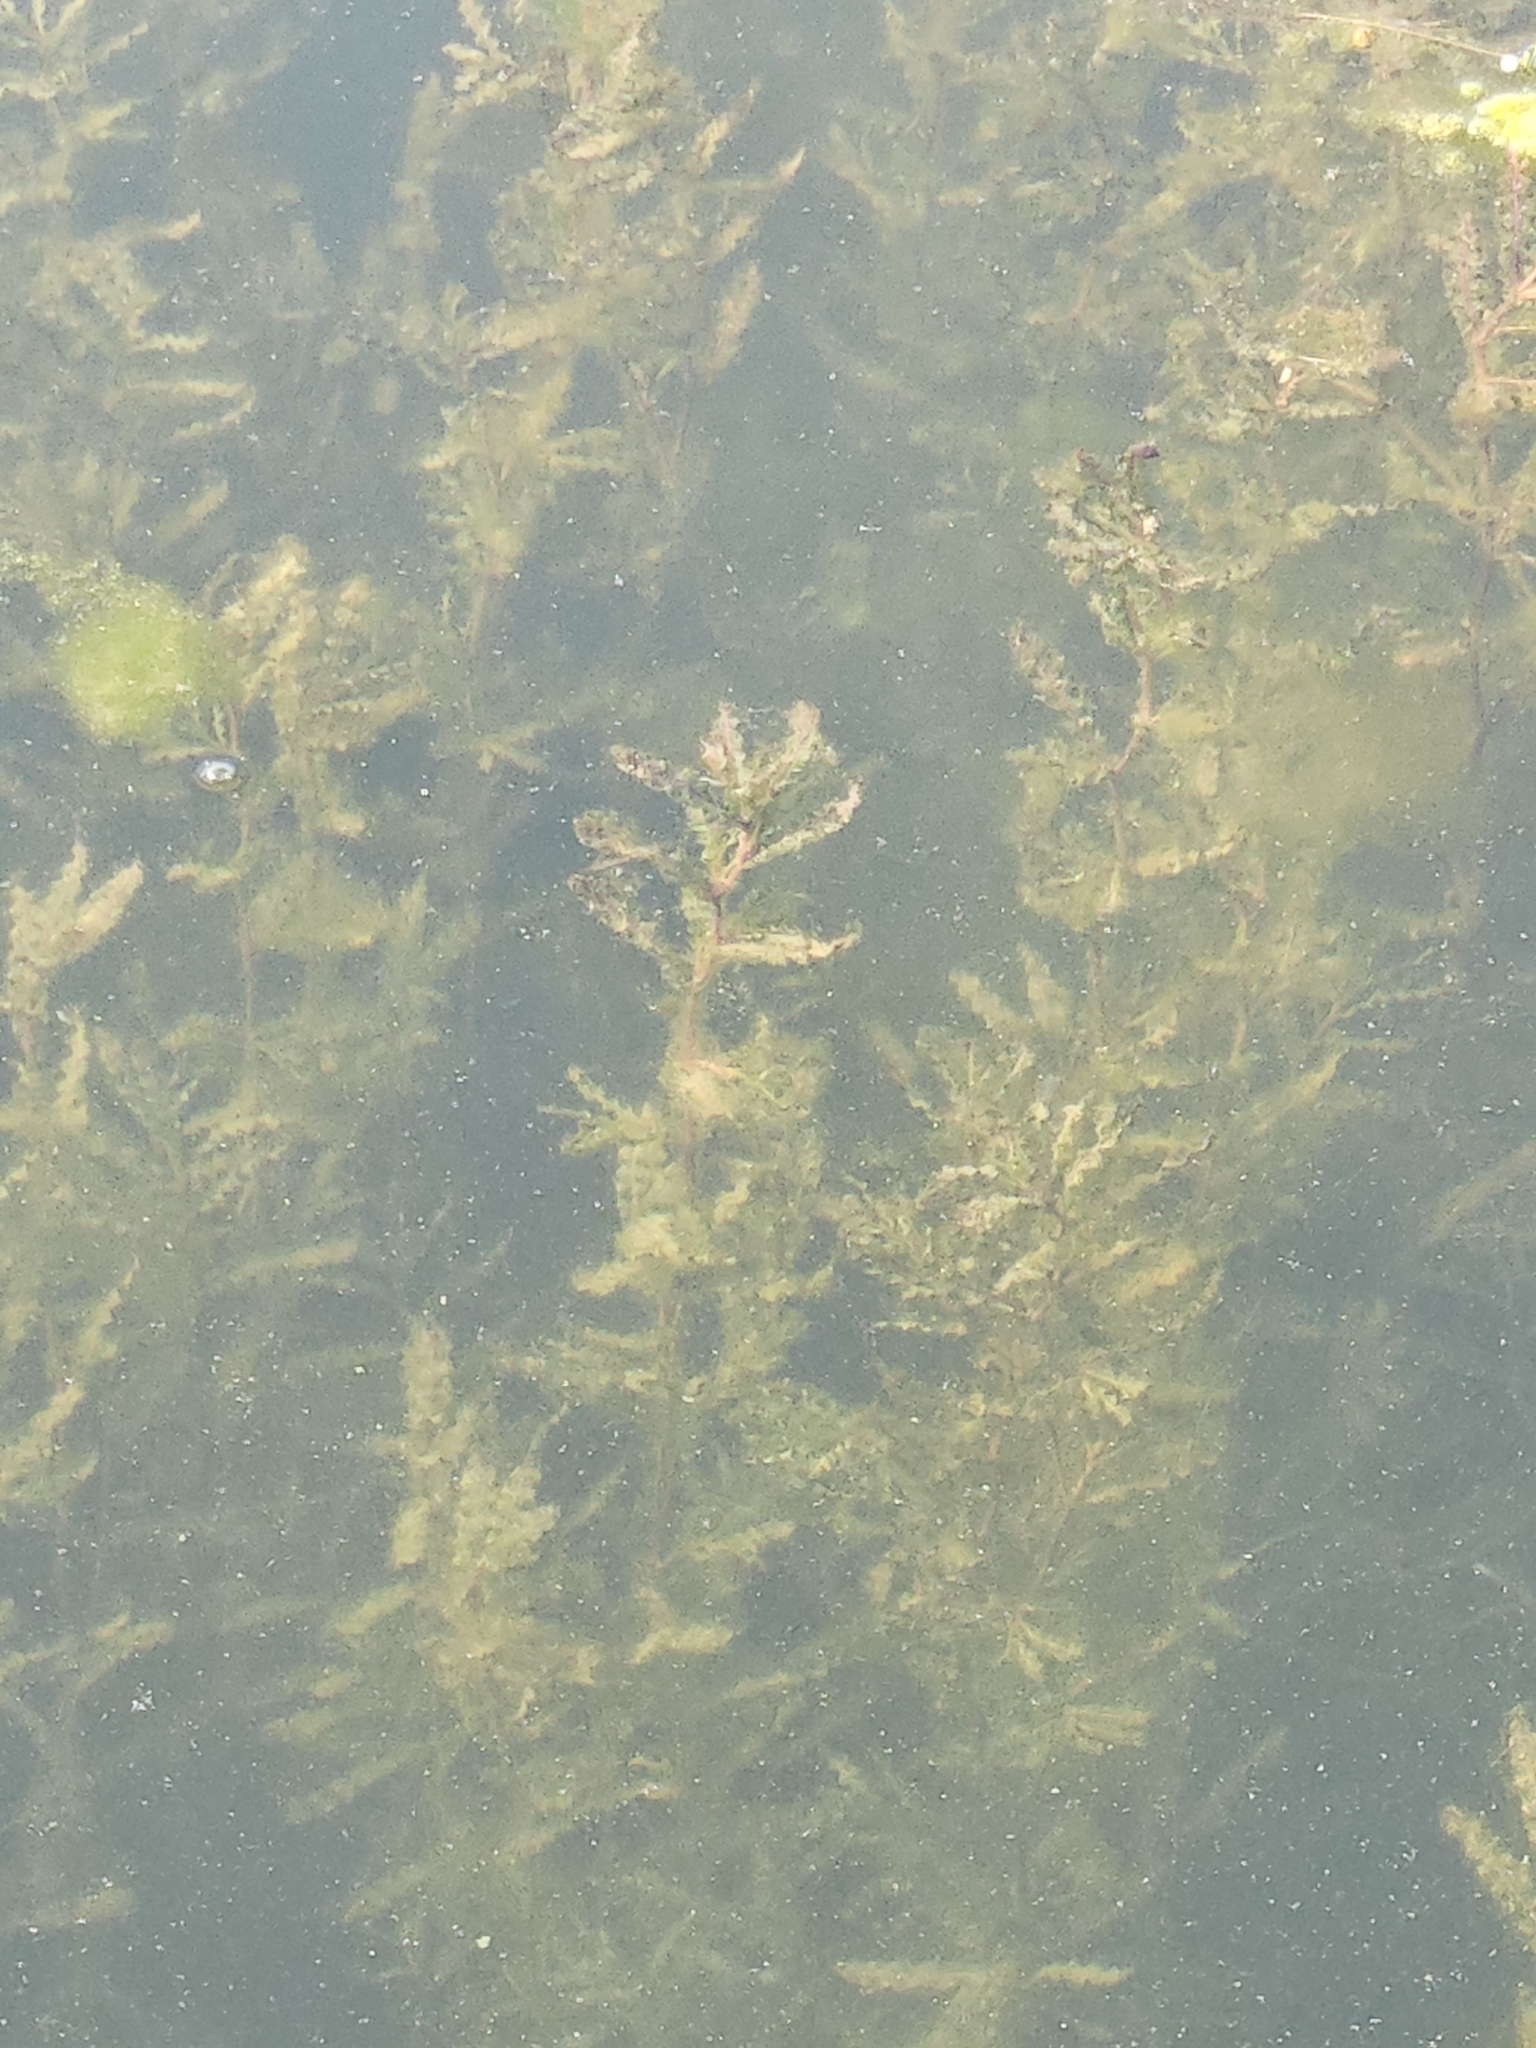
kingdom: Plantae
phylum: Tracheophyta
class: Liliopsida
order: Alismatales
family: Potamogetonaceae
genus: Potamogeton
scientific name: Potamogeton crispus
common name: Curled pondweed
